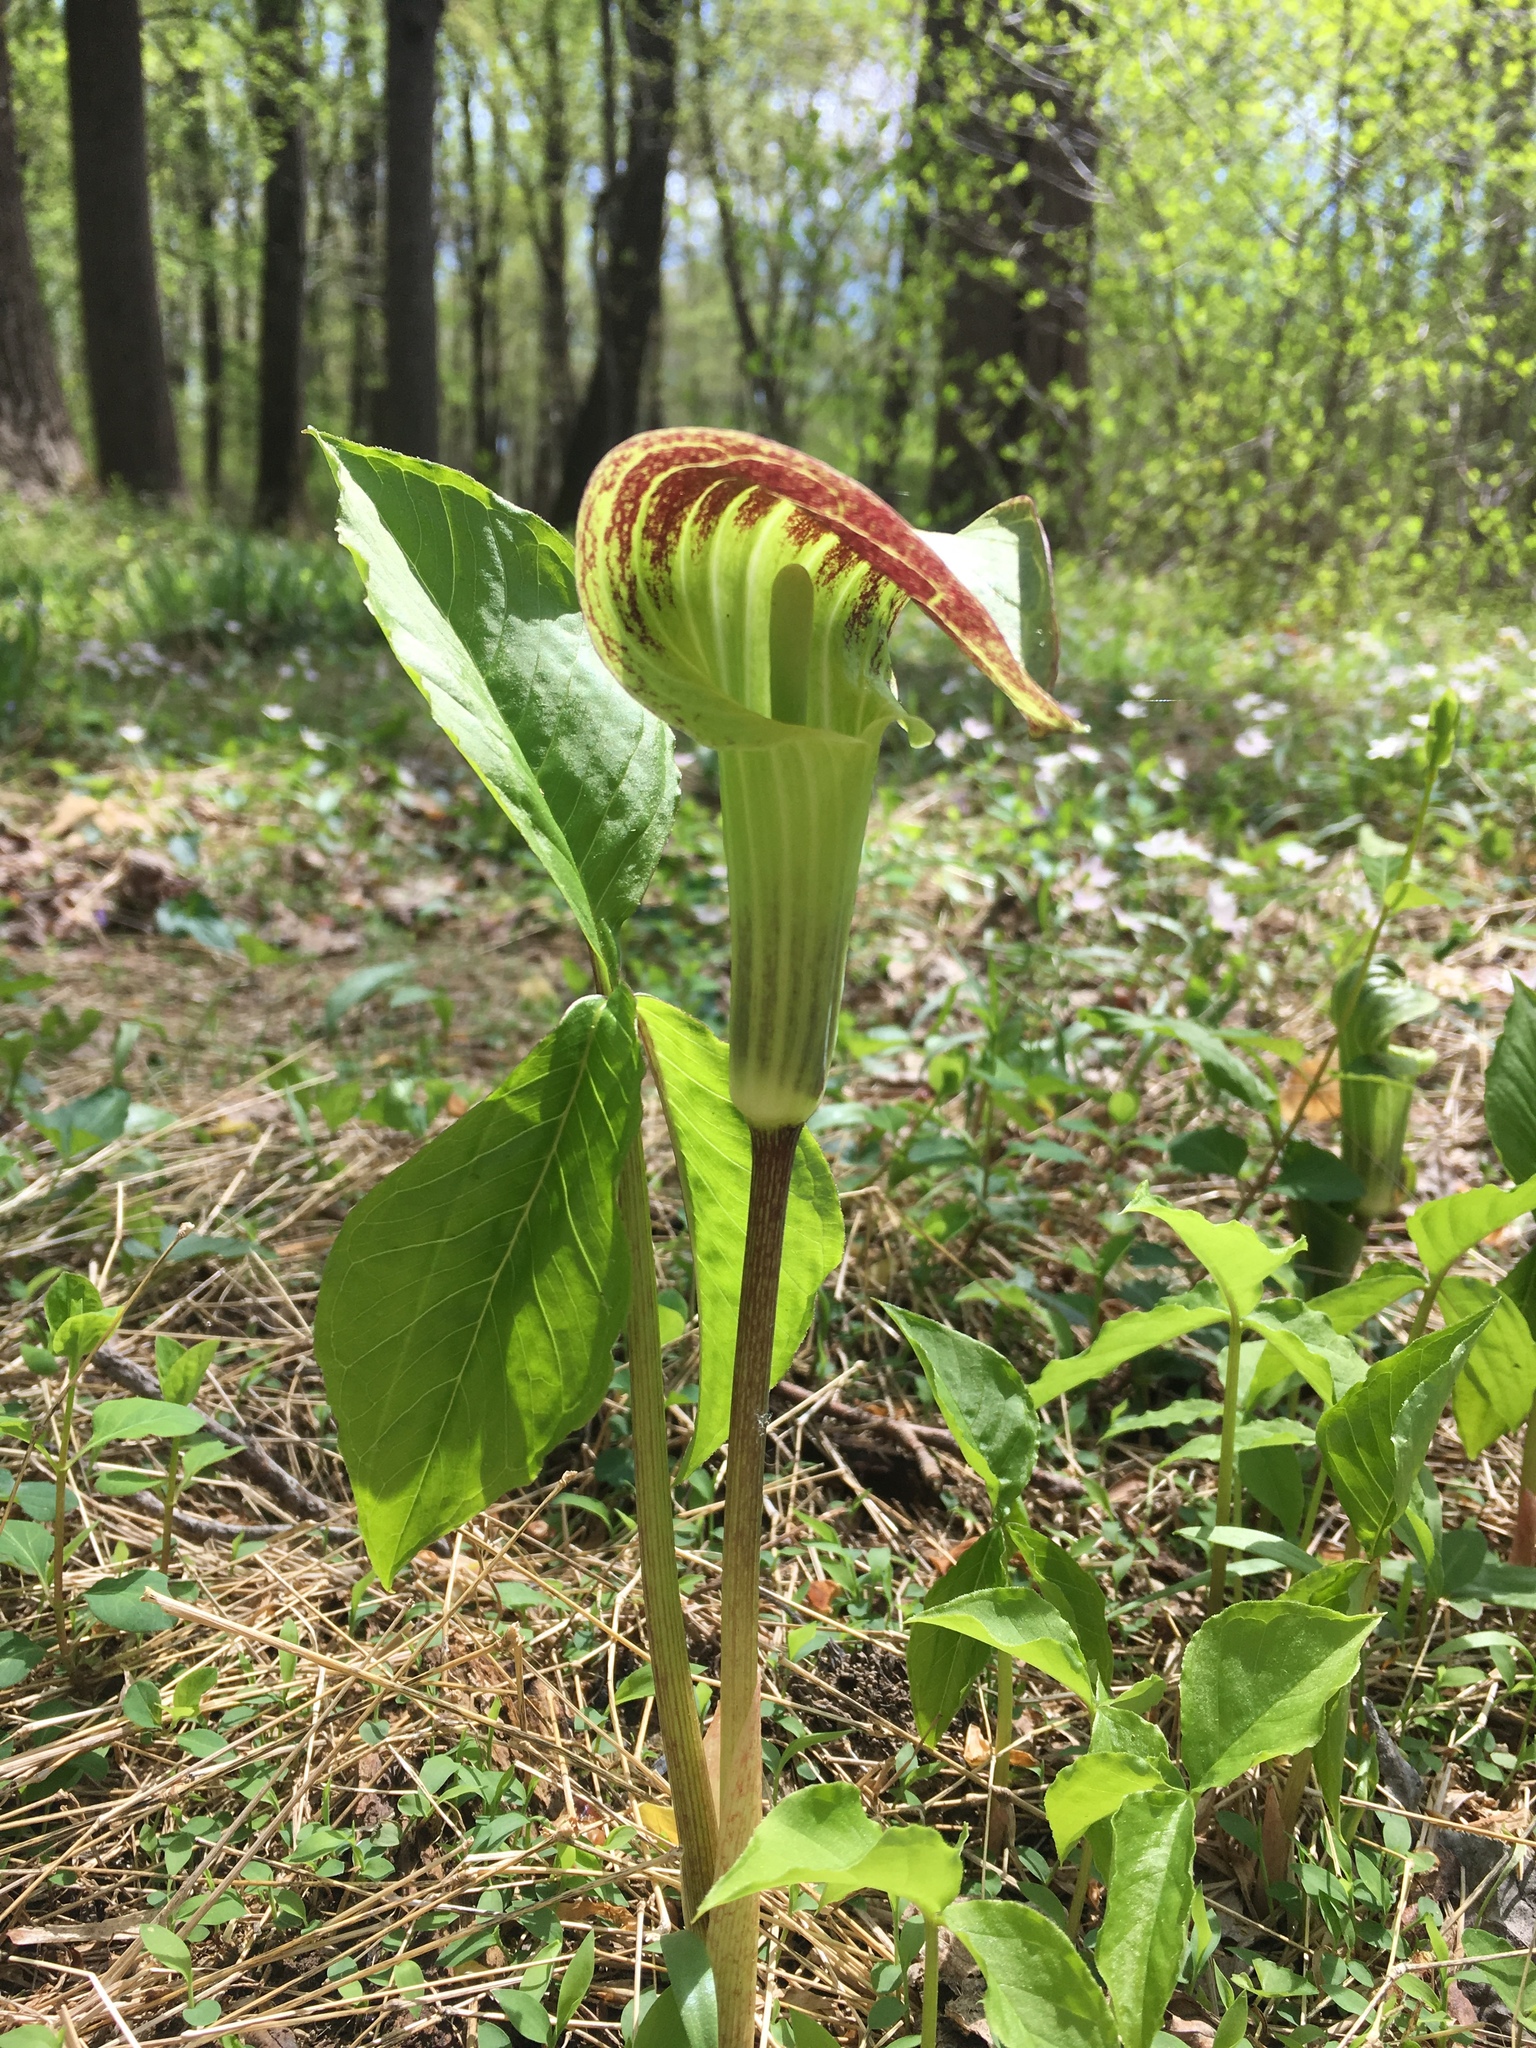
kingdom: Plantae
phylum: Tracheophyta
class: Liliopsida
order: Alismatales
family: Araceae
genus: Arisaema
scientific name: Arisaema triphyllum
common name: Jack-in-the-pulpit
